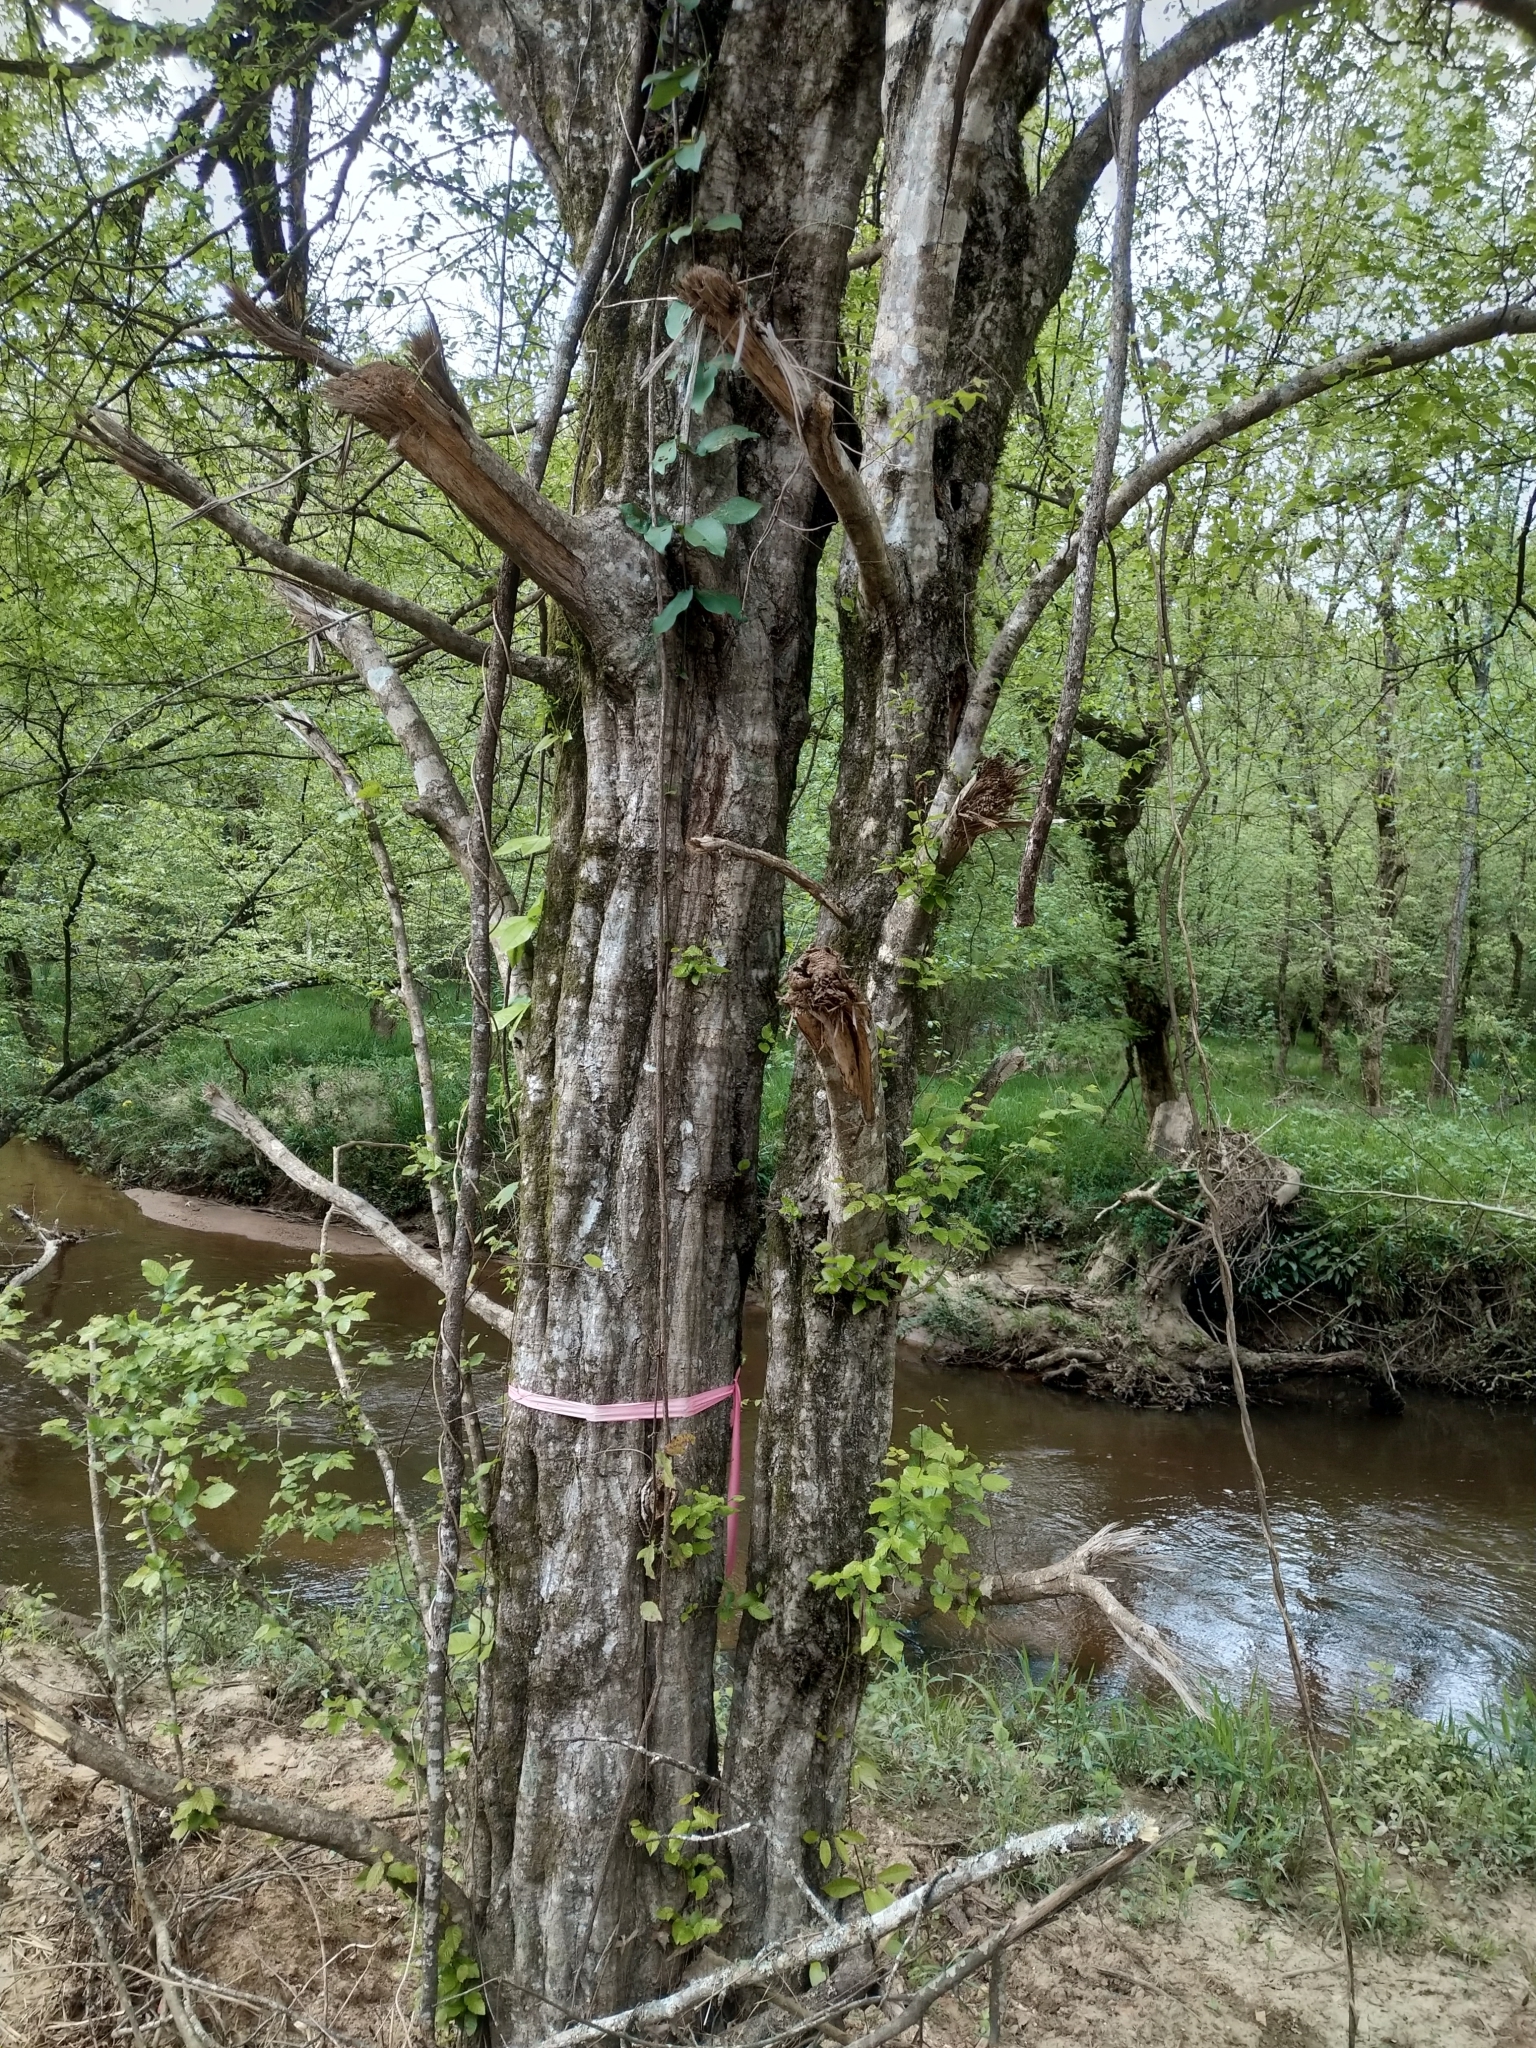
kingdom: Plantae
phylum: Tracheophyta
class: Magnoliopsida
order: Fagales
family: Betulaceae
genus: Carpinus
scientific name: Carpinus caroliniana
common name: American hornbeam
